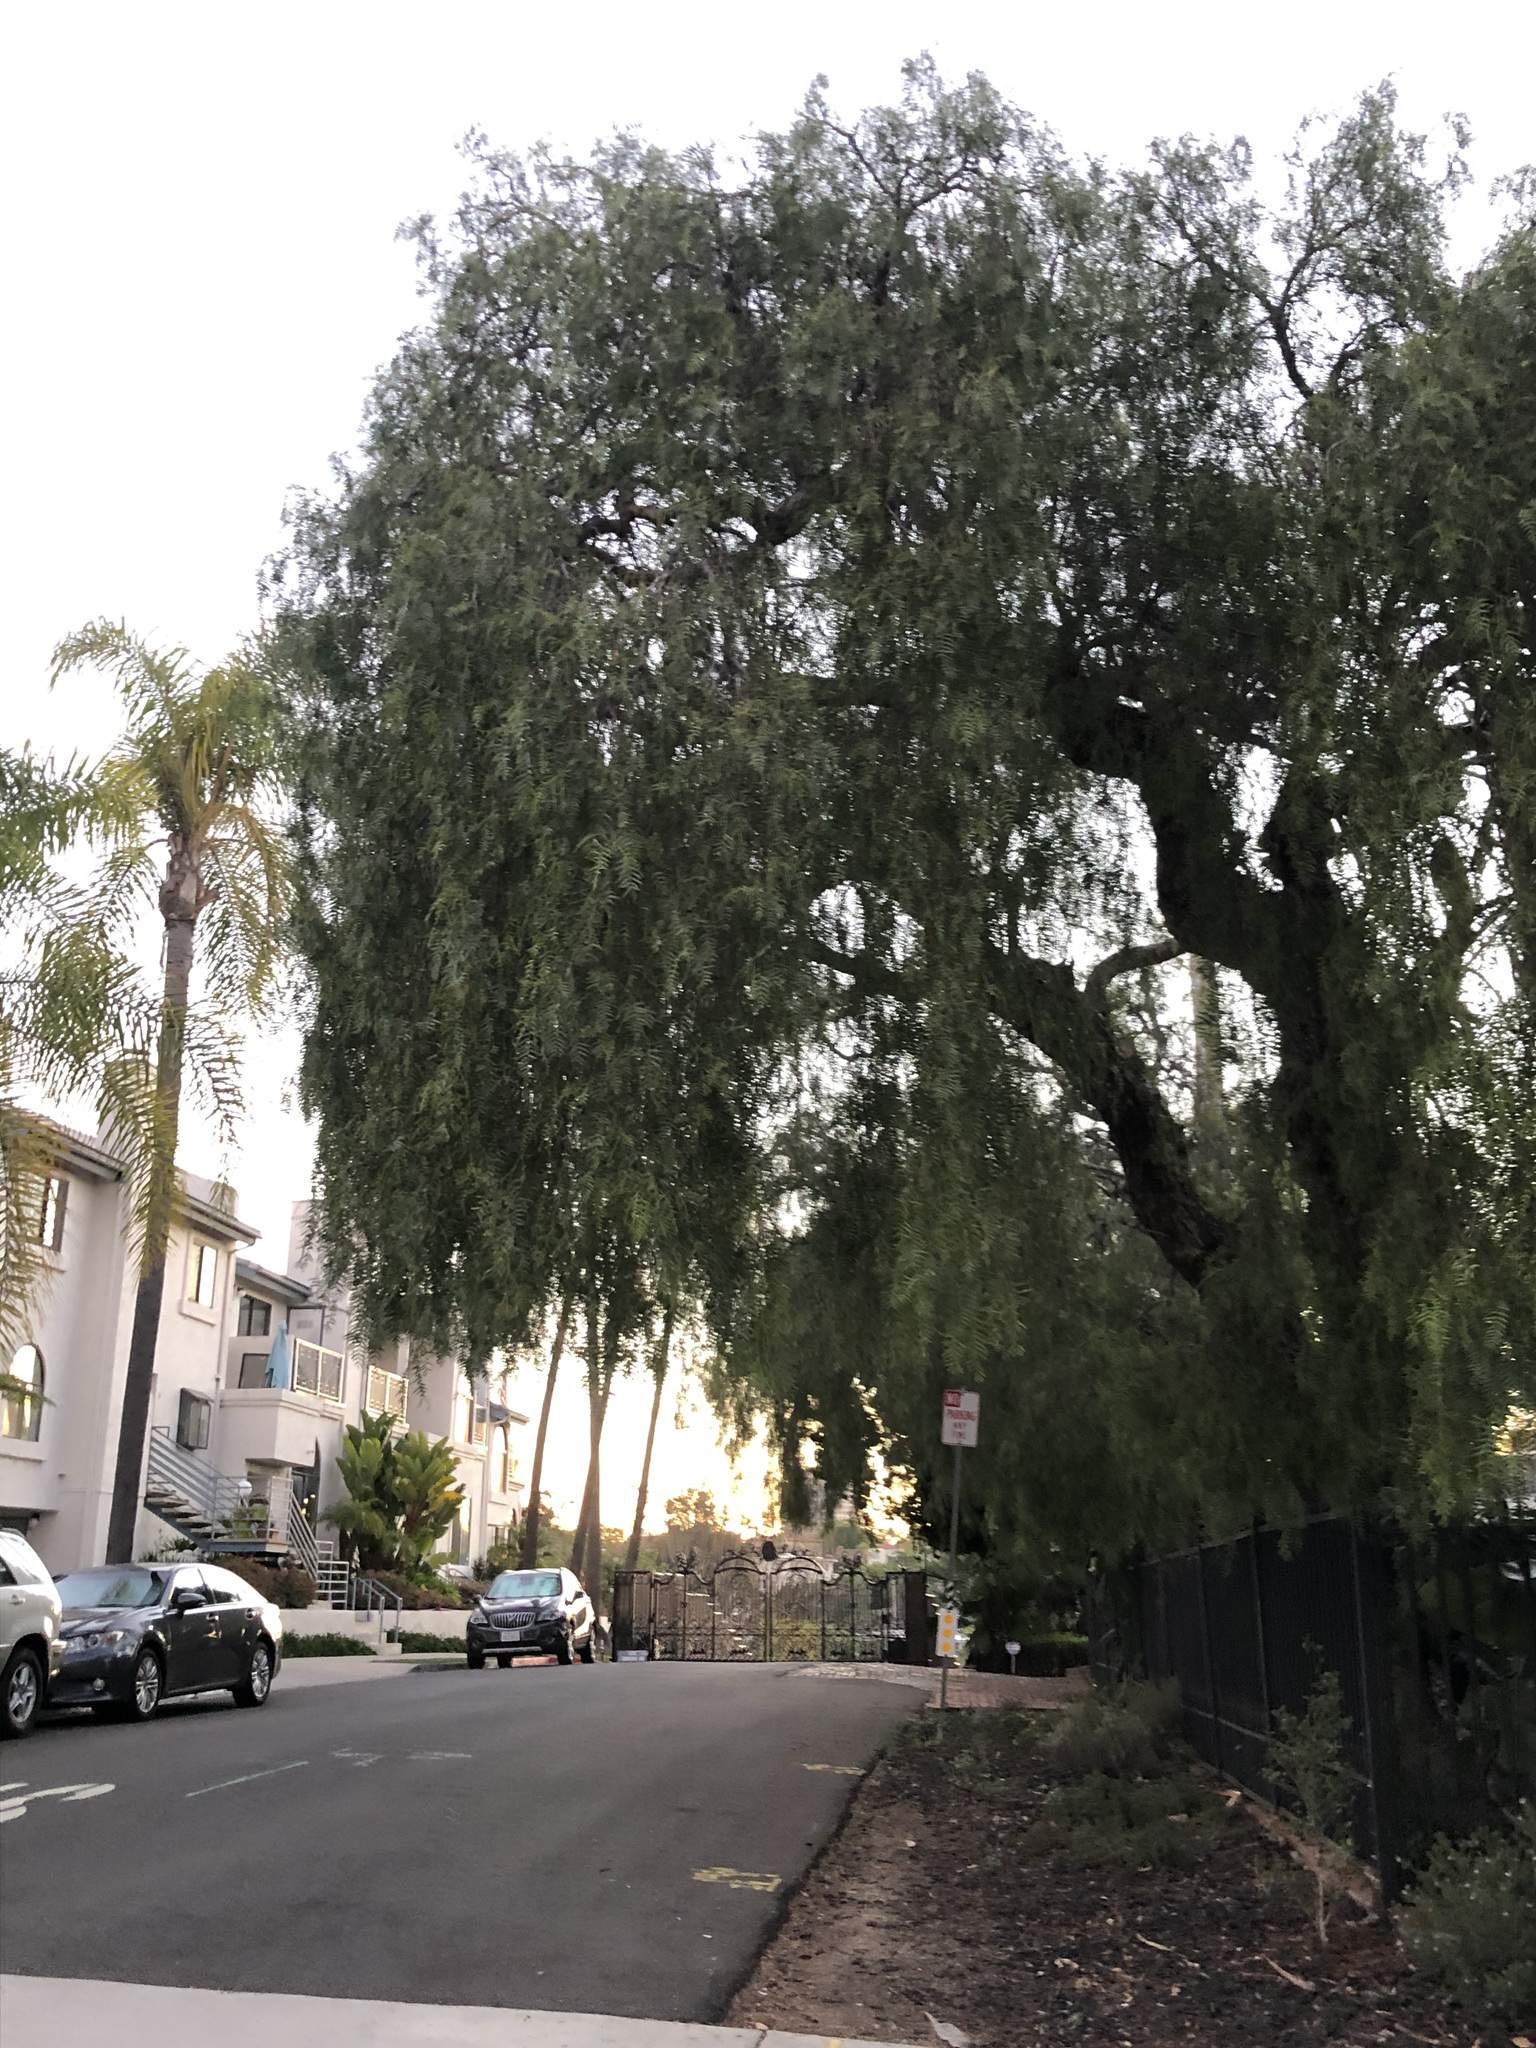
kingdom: Plantae
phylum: Tracheophyta
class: Magnoliopsida
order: Sapindales
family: Anacardiaceae
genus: Schinus
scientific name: Schinus molle
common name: Peruvian peppertree
